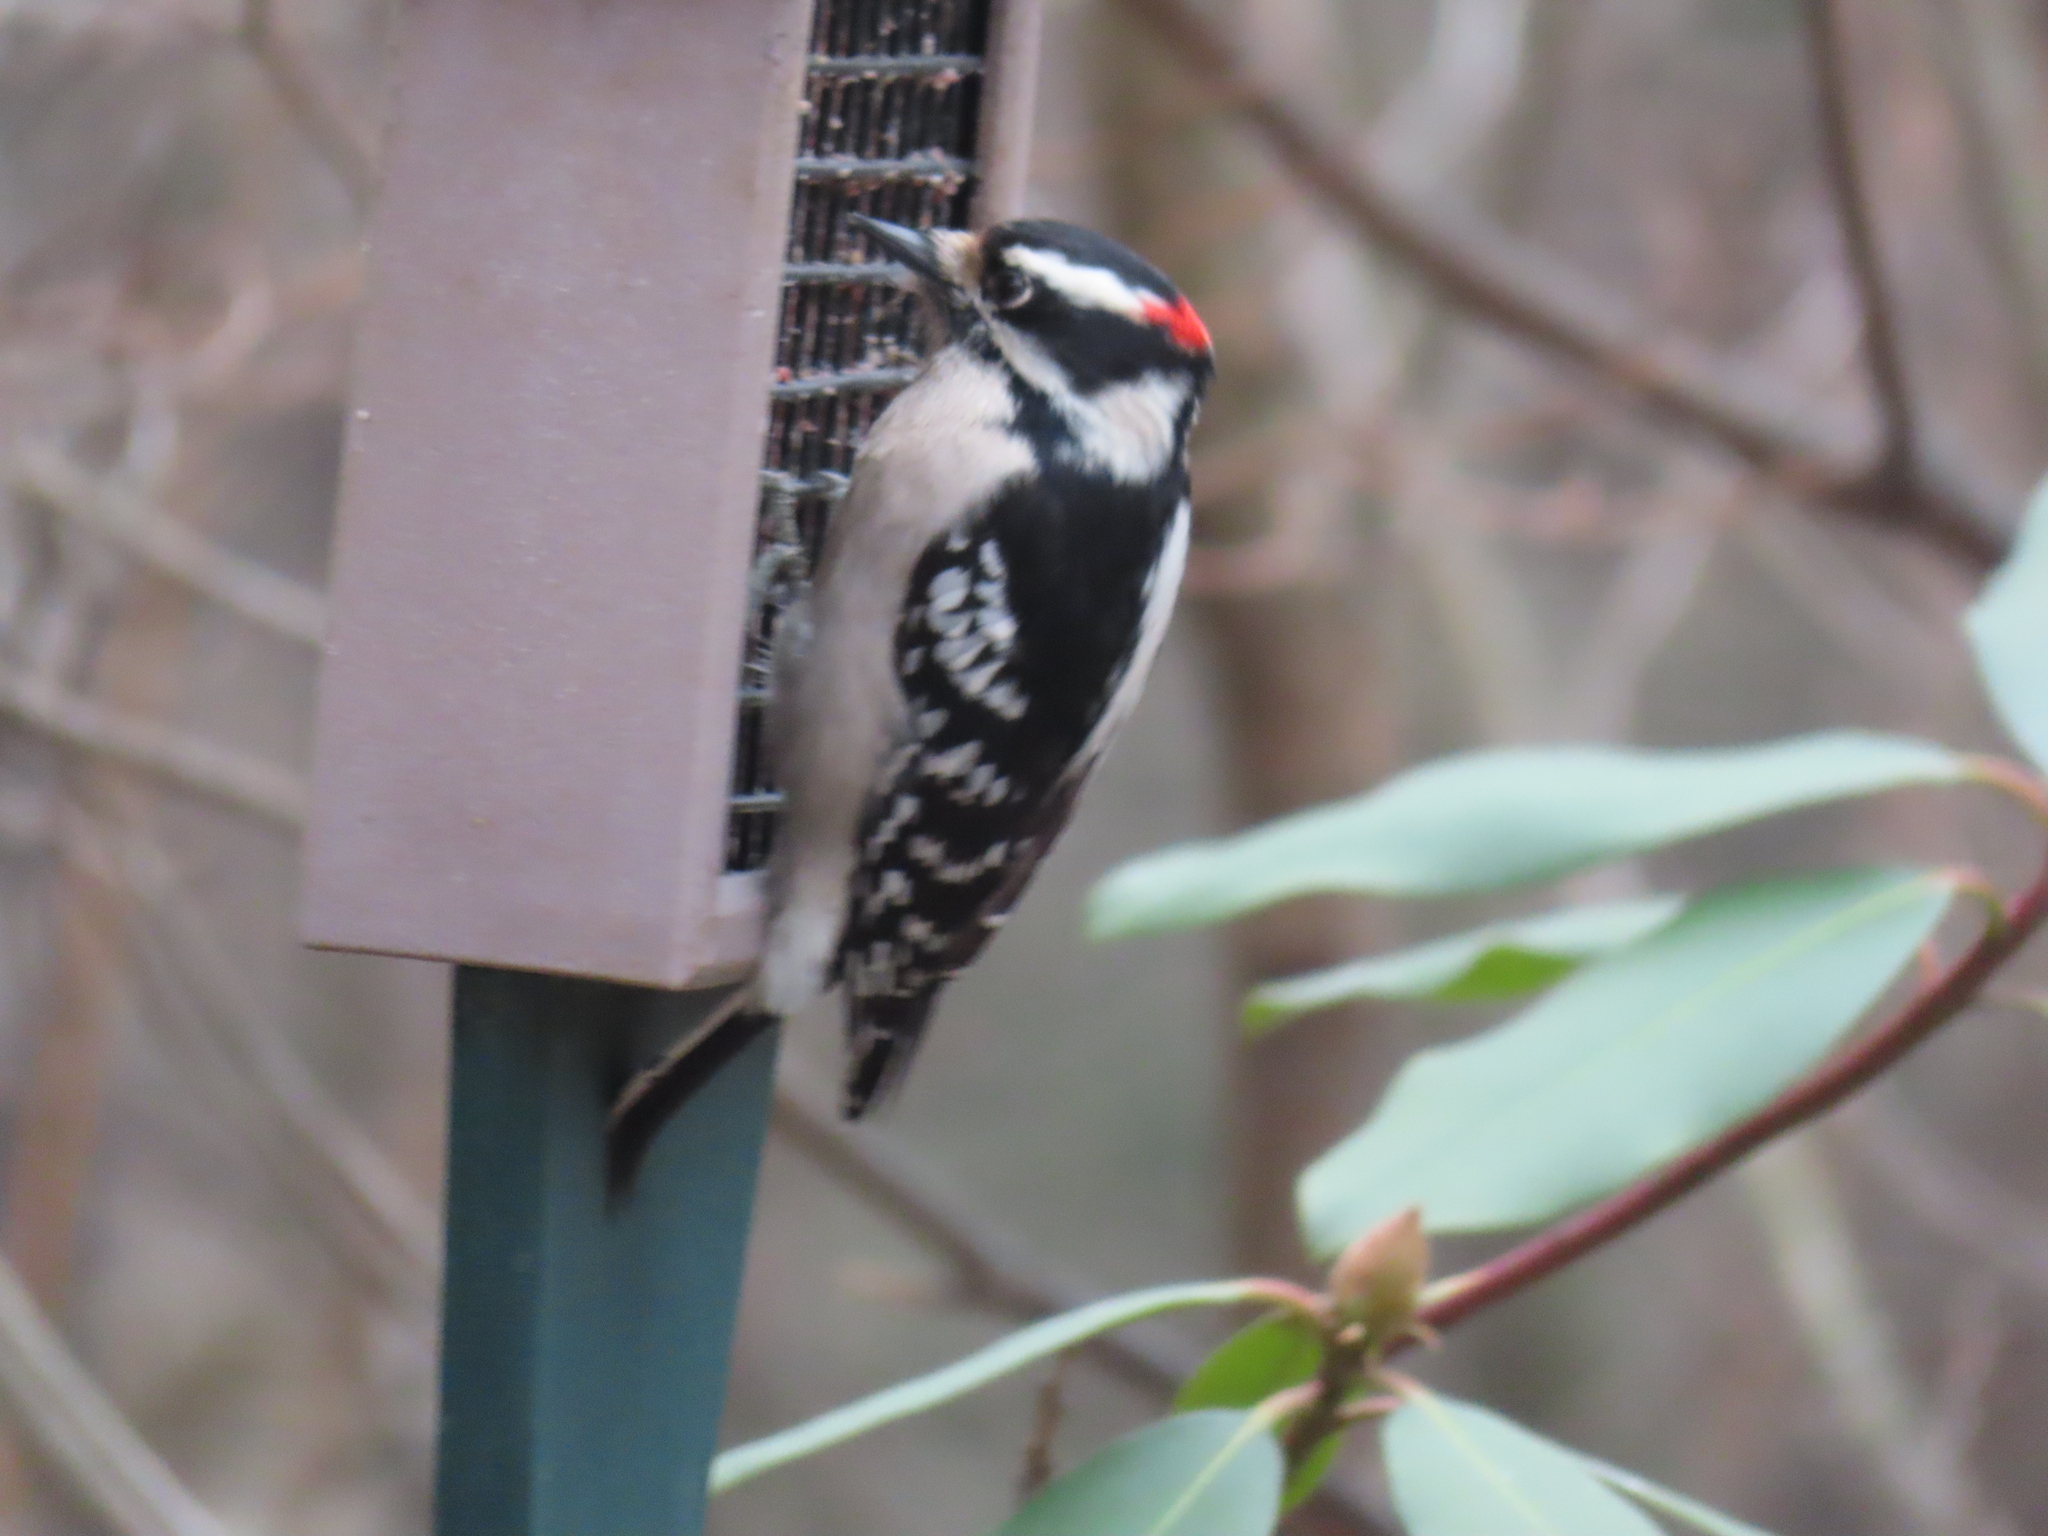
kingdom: Animalia
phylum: Chordata
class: Aves
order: Piciformes
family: Picidae
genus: Dryobates
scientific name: Dryobates pubescens
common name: Downy woodpecker
